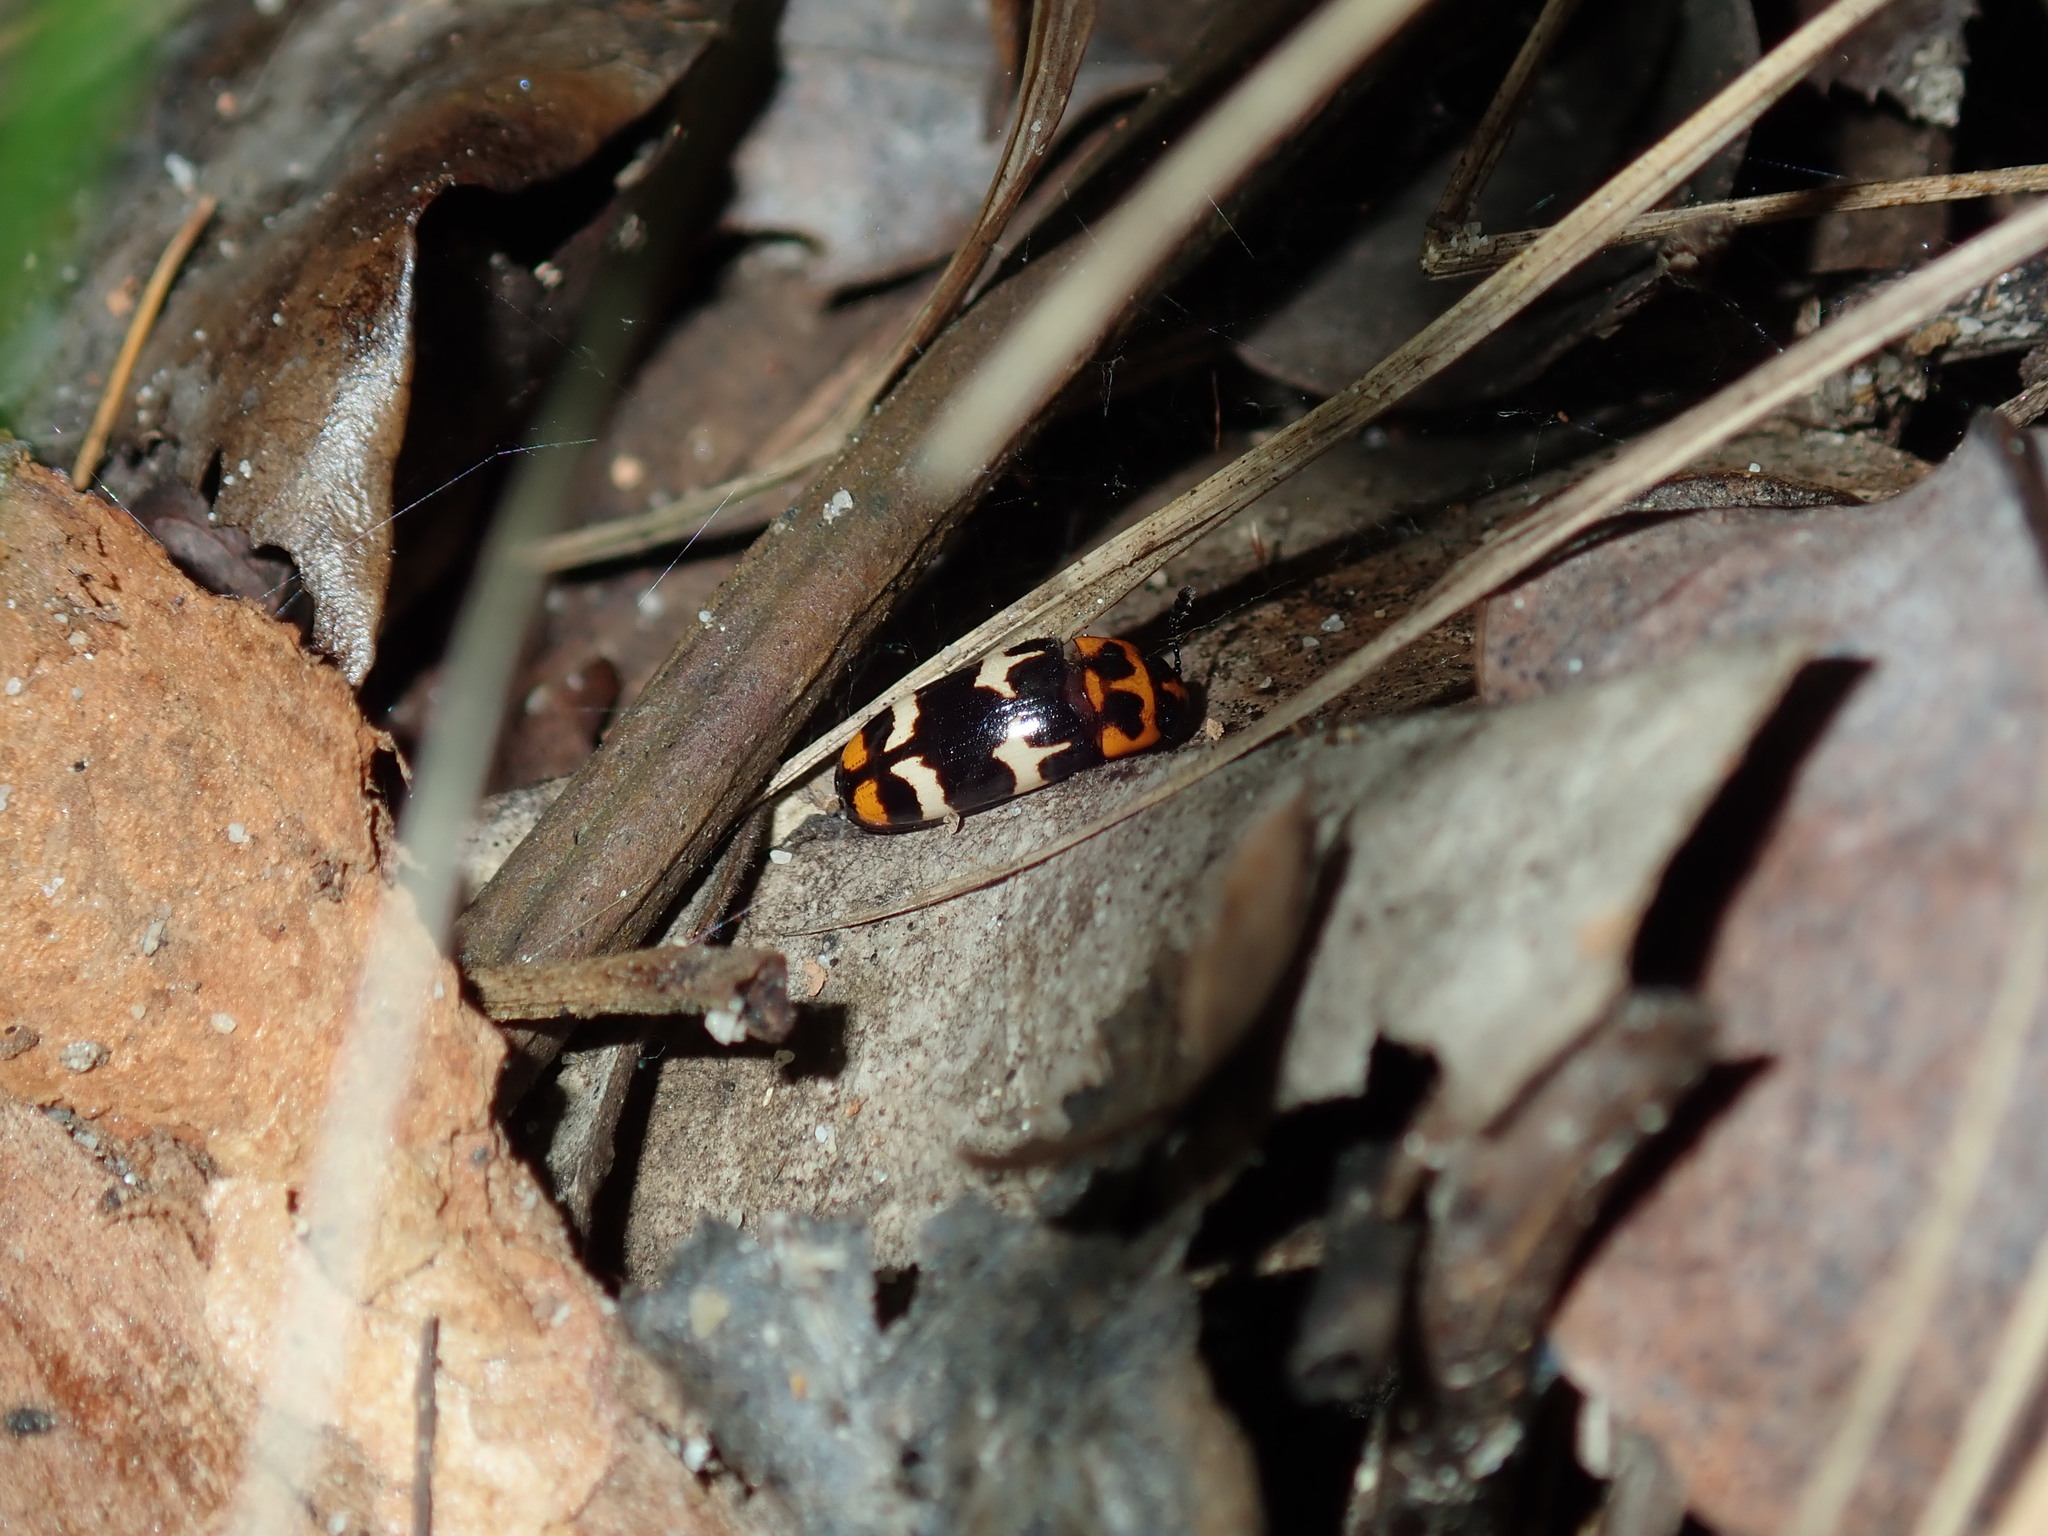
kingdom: Animalia
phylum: Arthropoda
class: Insecta
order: Coleoptera
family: Erotylidae
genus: Episcaphula
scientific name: Episcaphula
